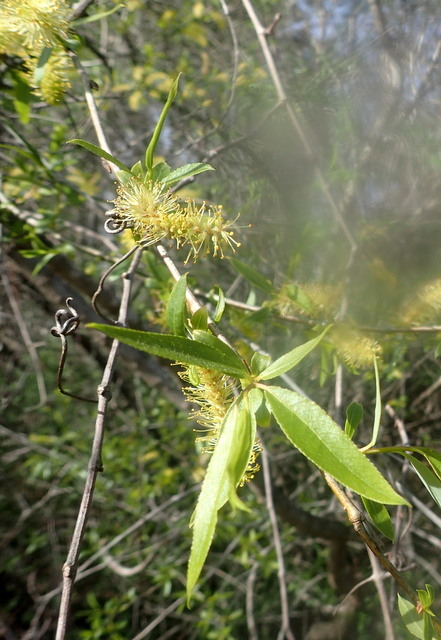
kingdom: Plantae
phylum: Tracheophyta
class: Magnoliopsida
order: Malpighiales
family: Salicaceae
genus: Salix
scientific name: Salix caroliniana
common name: Carolina willow
